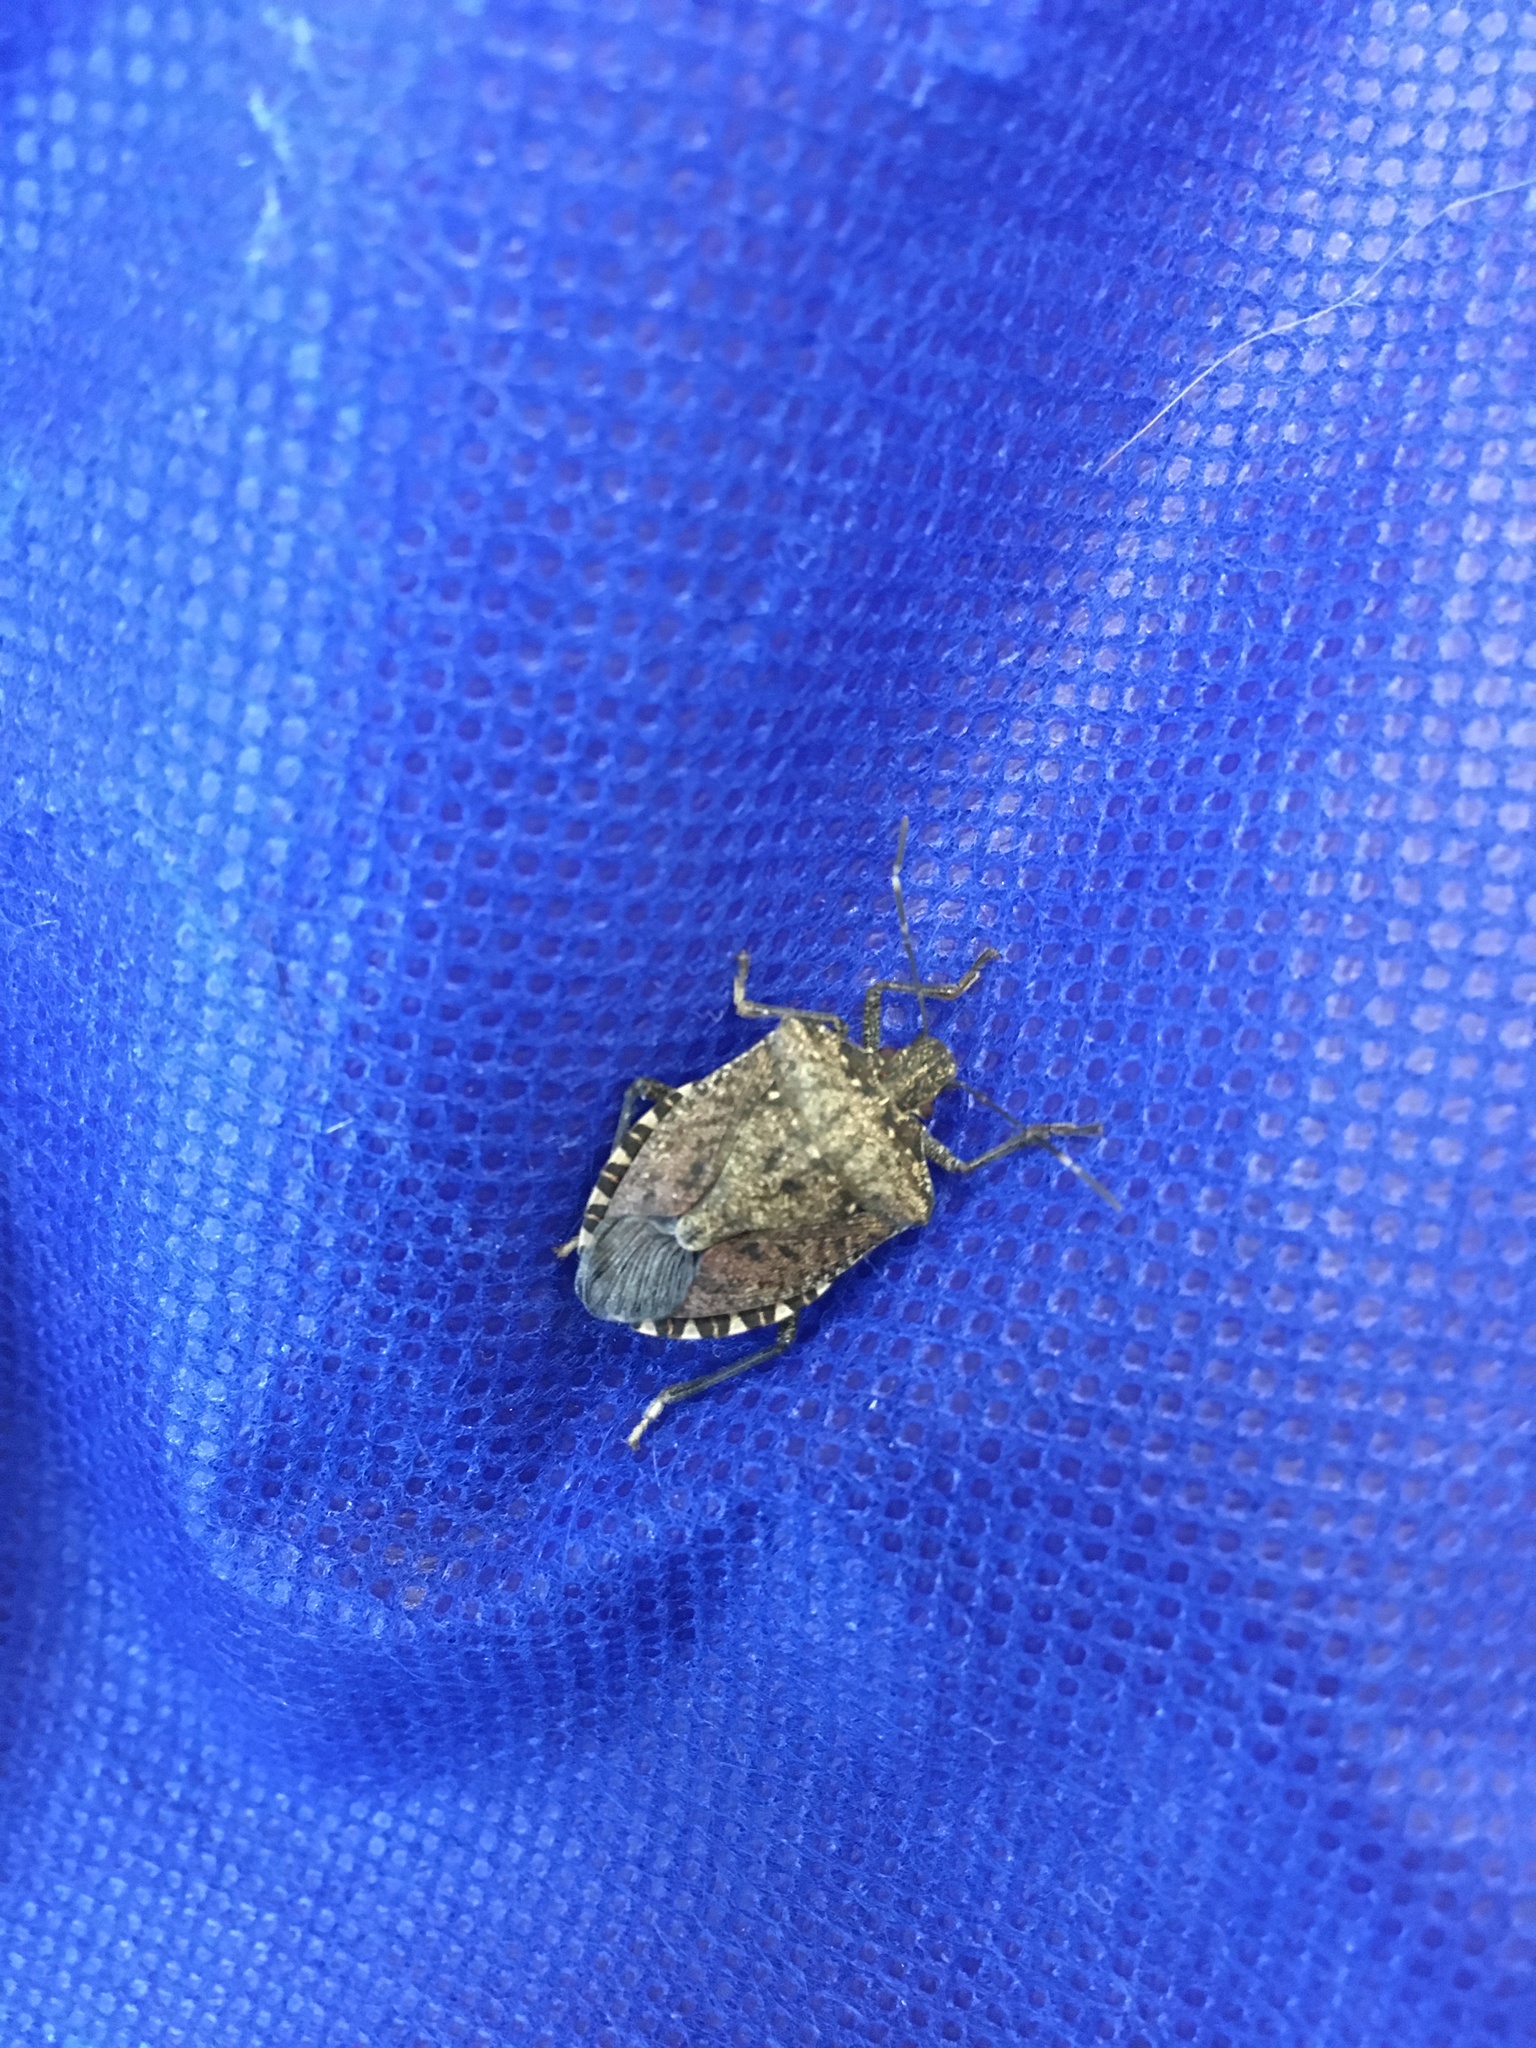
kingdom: Animalia
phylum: Arthropoda
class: Insecta
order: Hemiptera
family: Pentatomidae
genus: Halyomorpha
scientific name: Halyomorpha halys
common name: Brown marmorated stink bug
